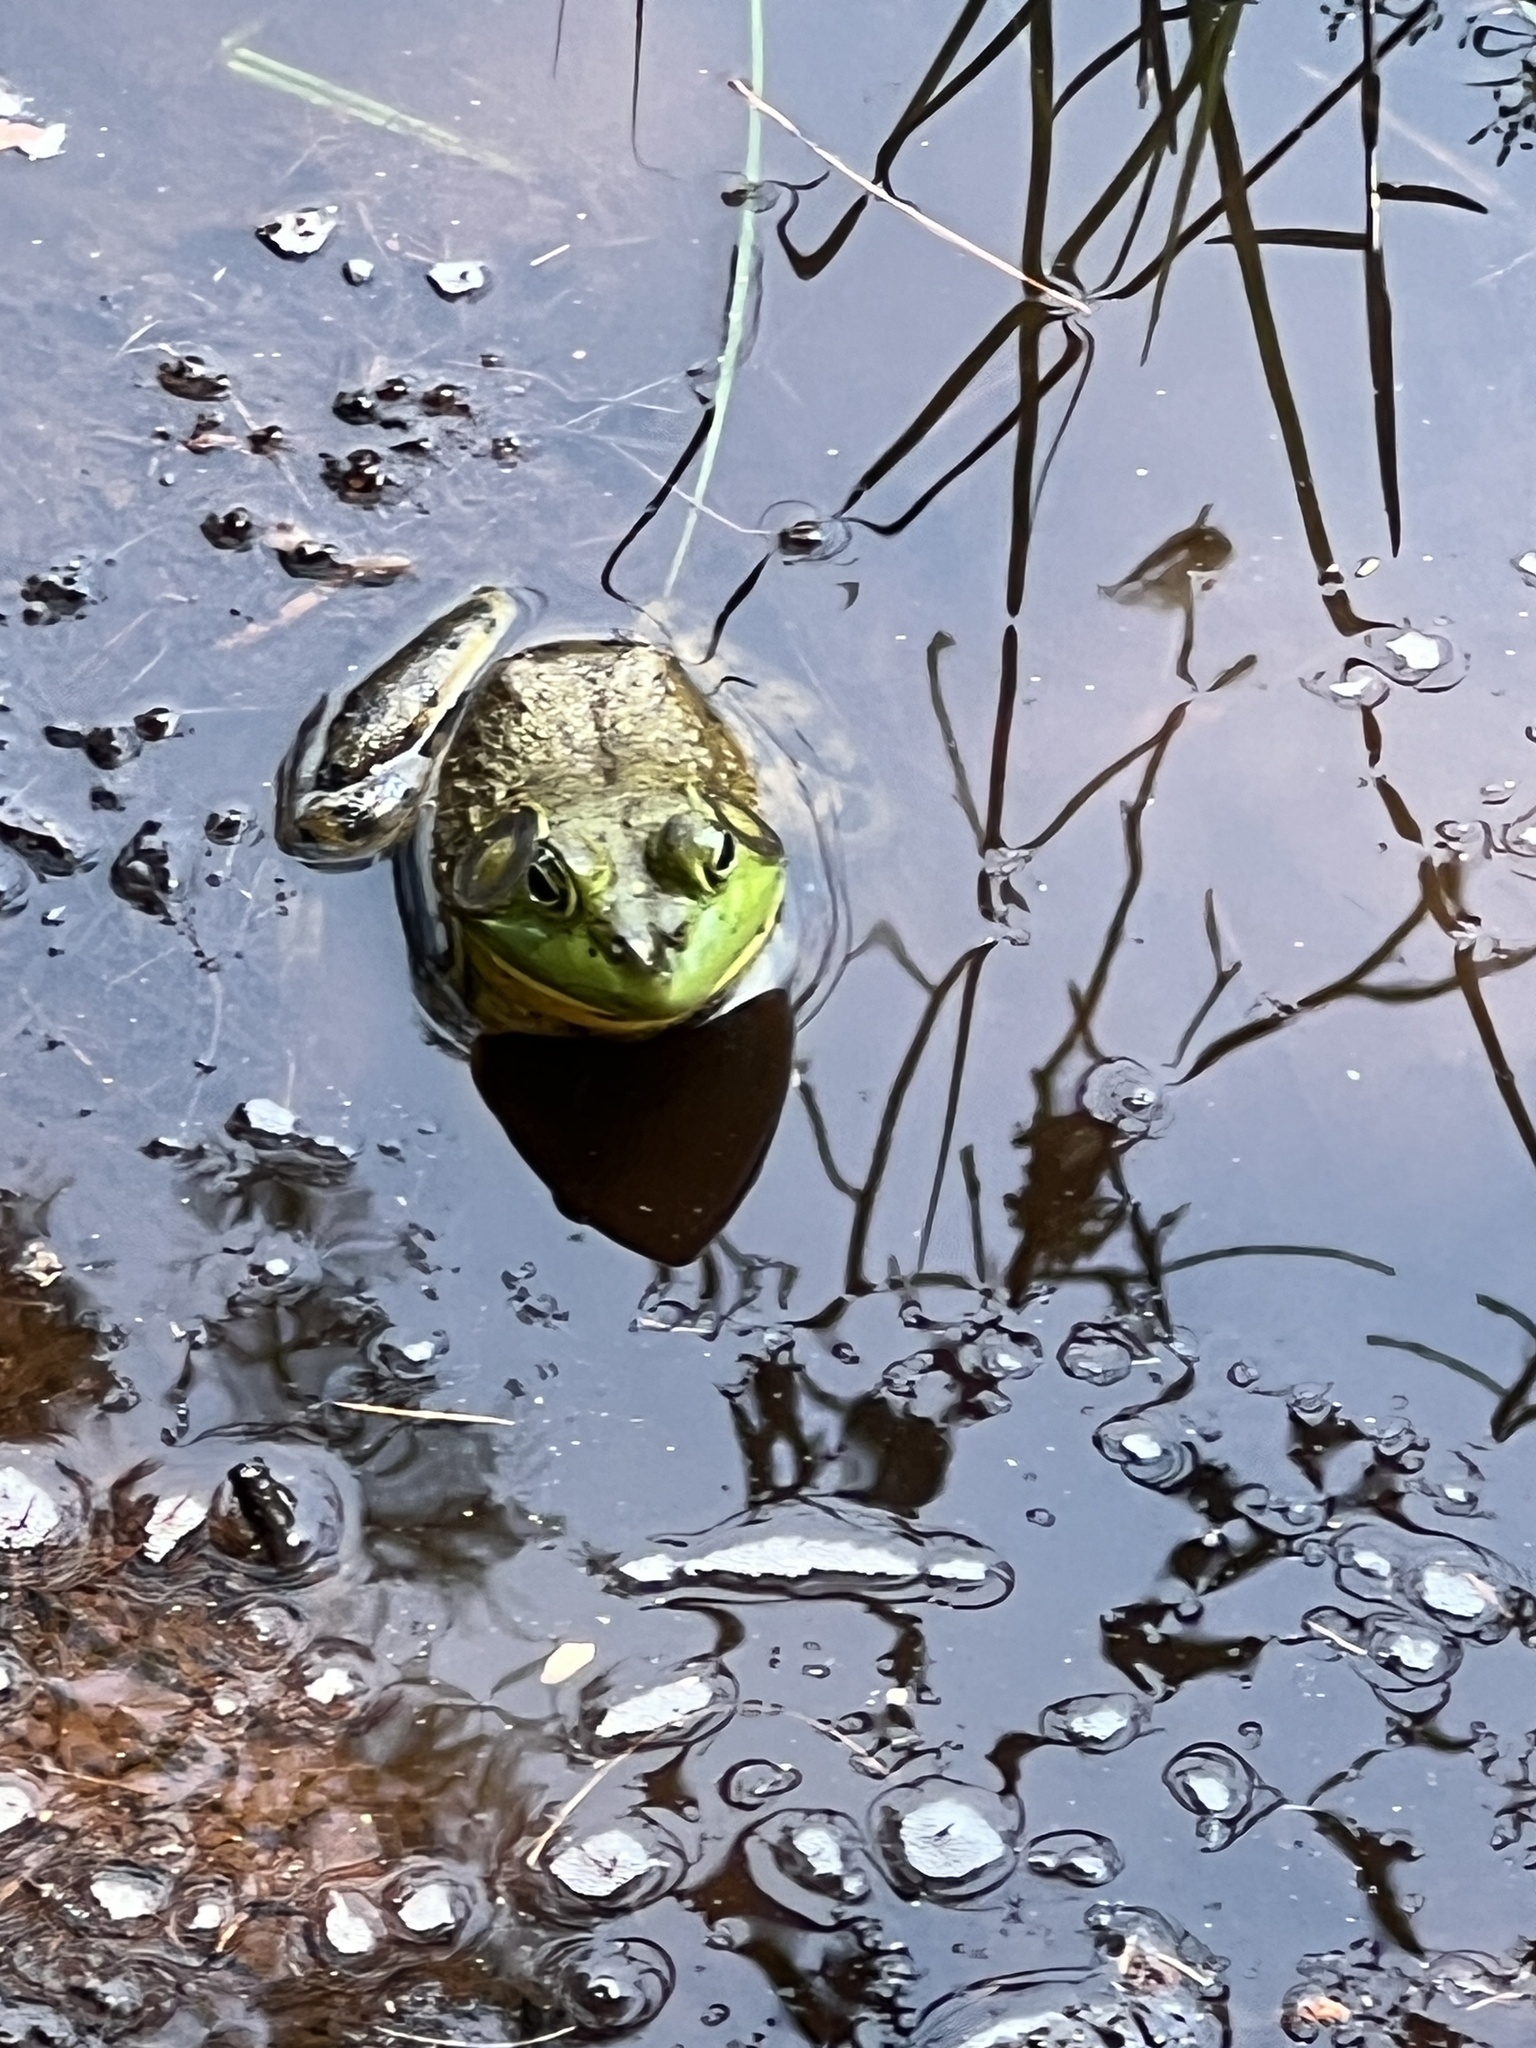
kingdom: Animalia
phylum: Chordata
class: Amphibia
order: Anura
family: Ranidae
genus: Lithobates
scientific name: Lithobates catesbeianus
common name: American bullfrog
